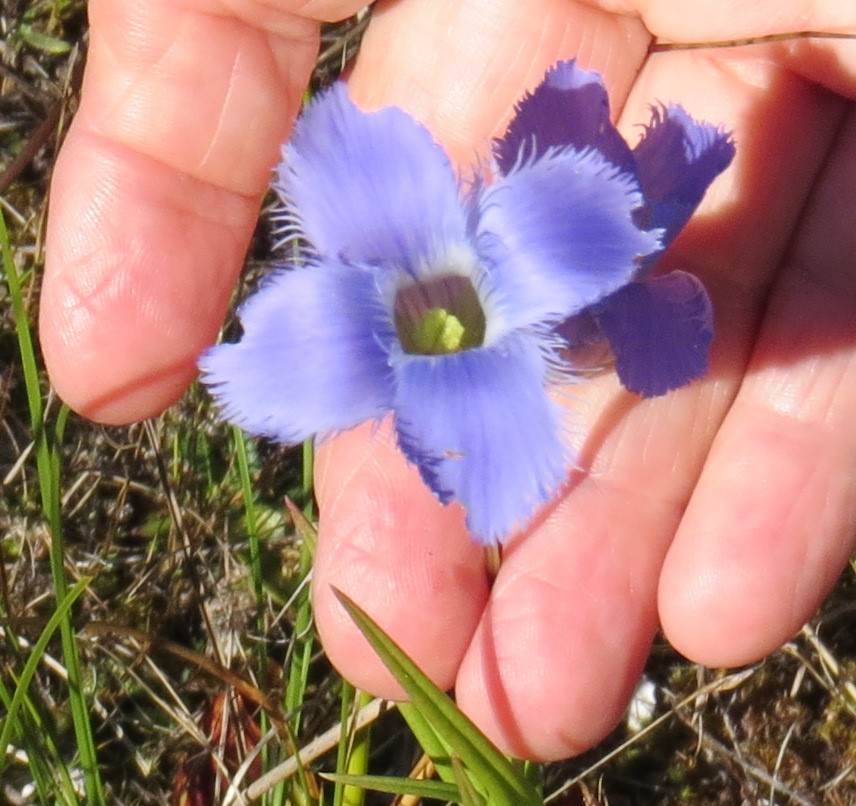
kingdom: Plantae
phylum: Tracheophyta
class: Magnoliopsida
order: Gentianales
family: Gentianaceae
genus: Gentianopsis
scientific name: Gentianopsis virgata
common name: Lesser fringed-gentian
